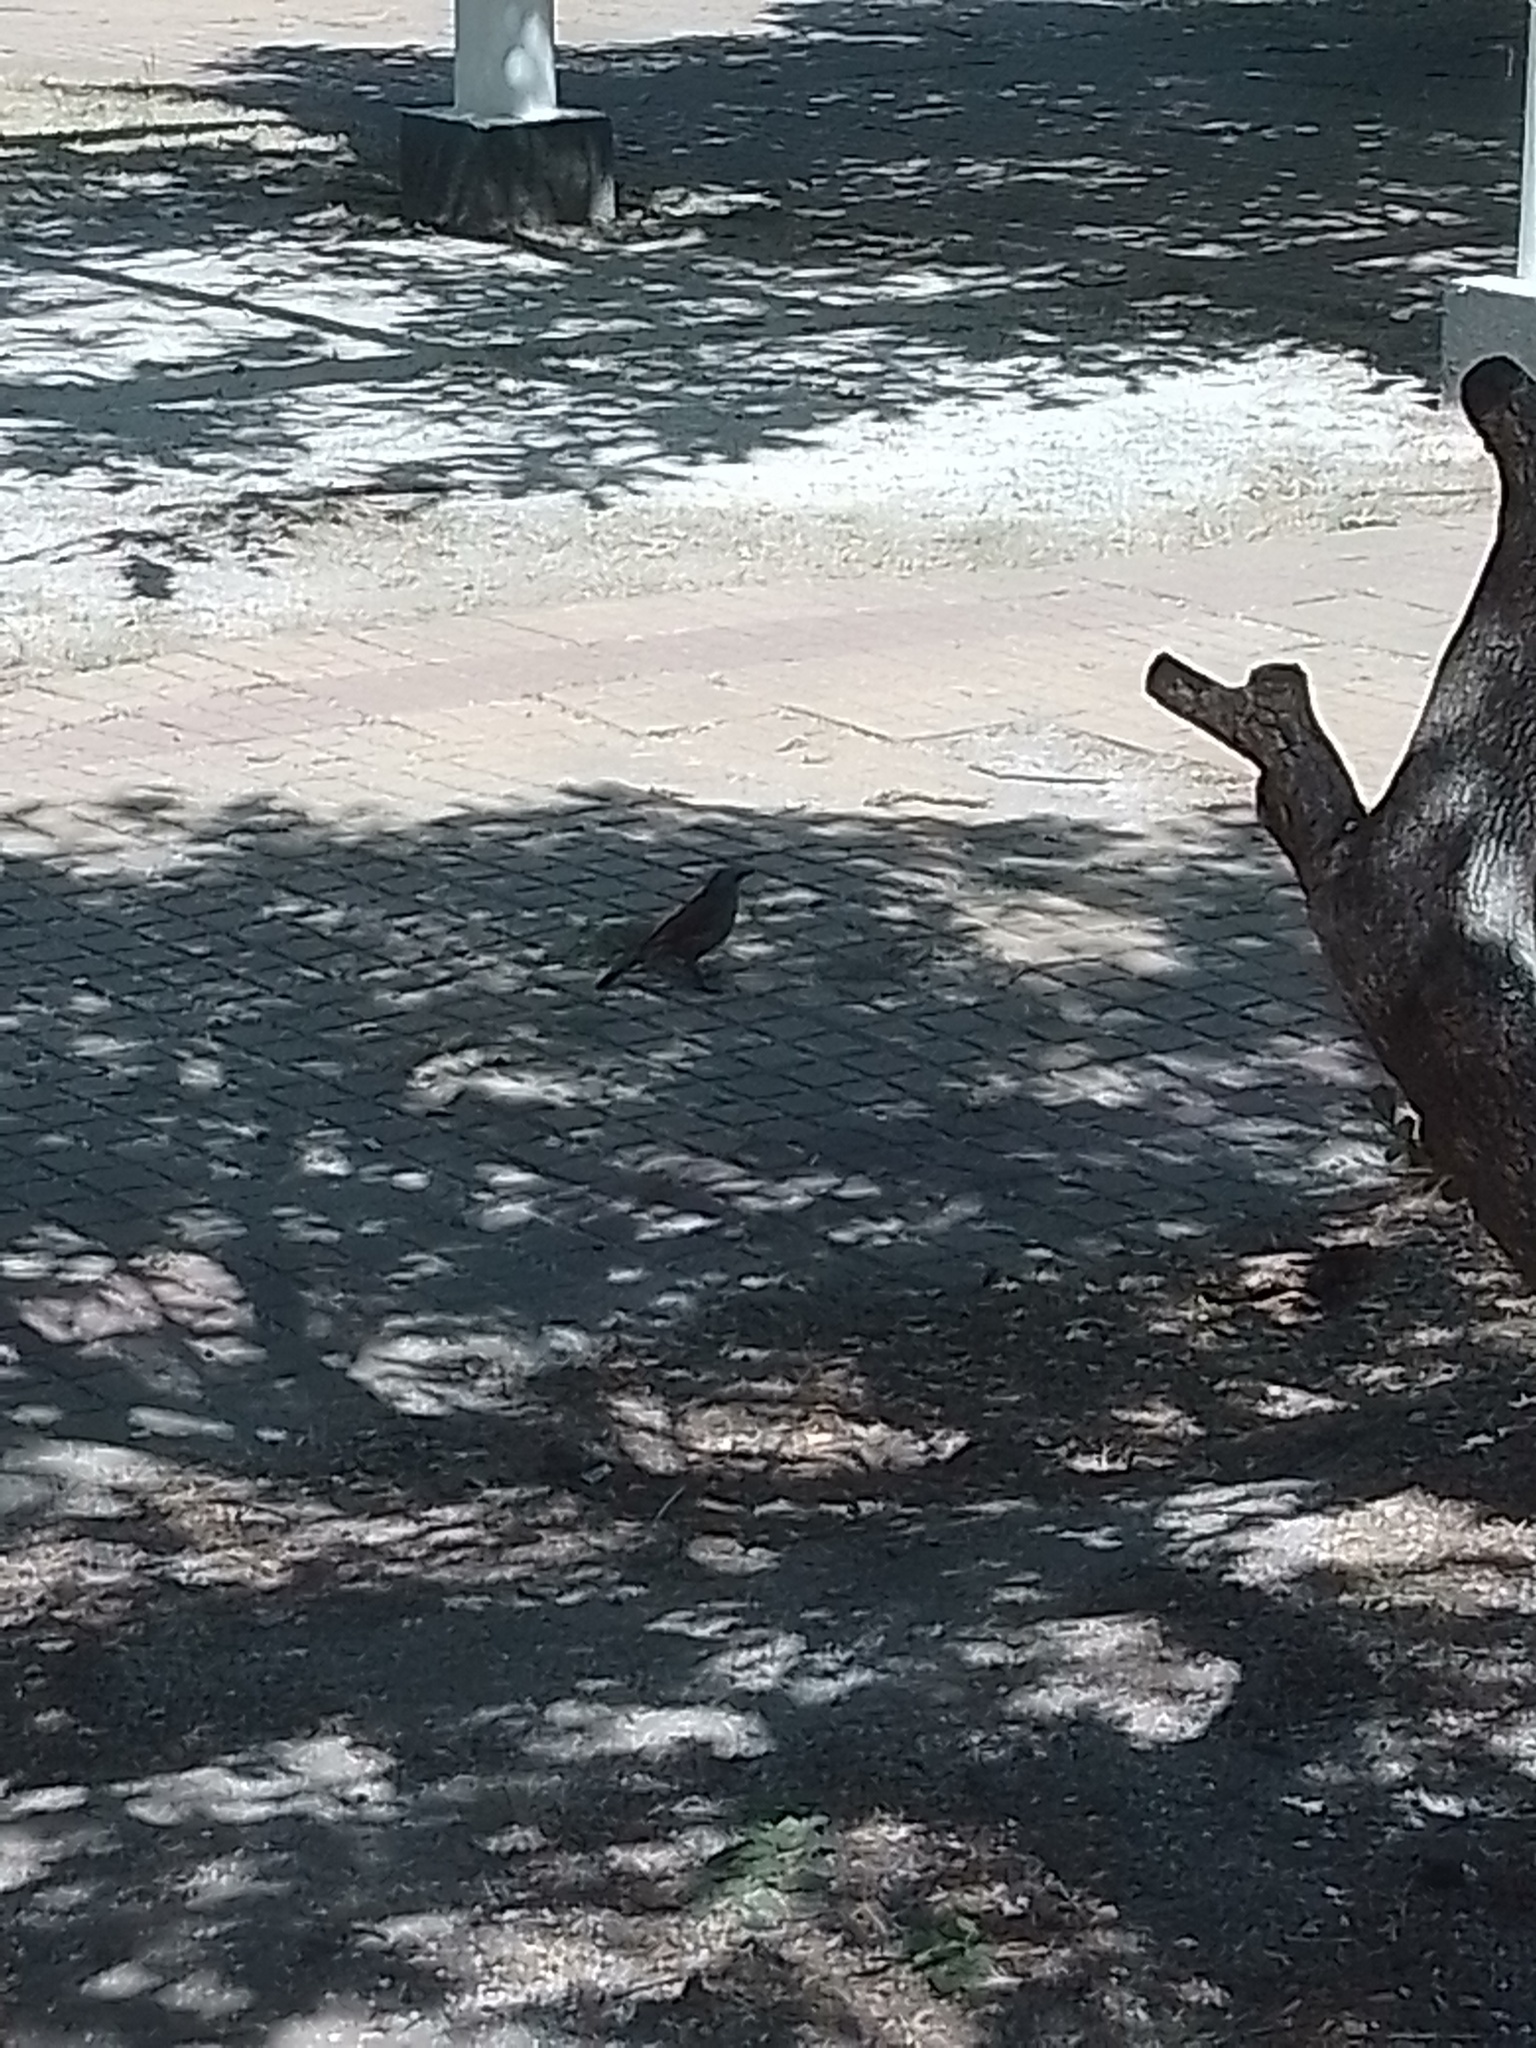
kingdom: Animalia
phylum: Chordata
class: Aves
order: Passeriformes
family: Icteridae
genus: Agelaioides
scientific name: Agelaioides badius
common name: Baywing
